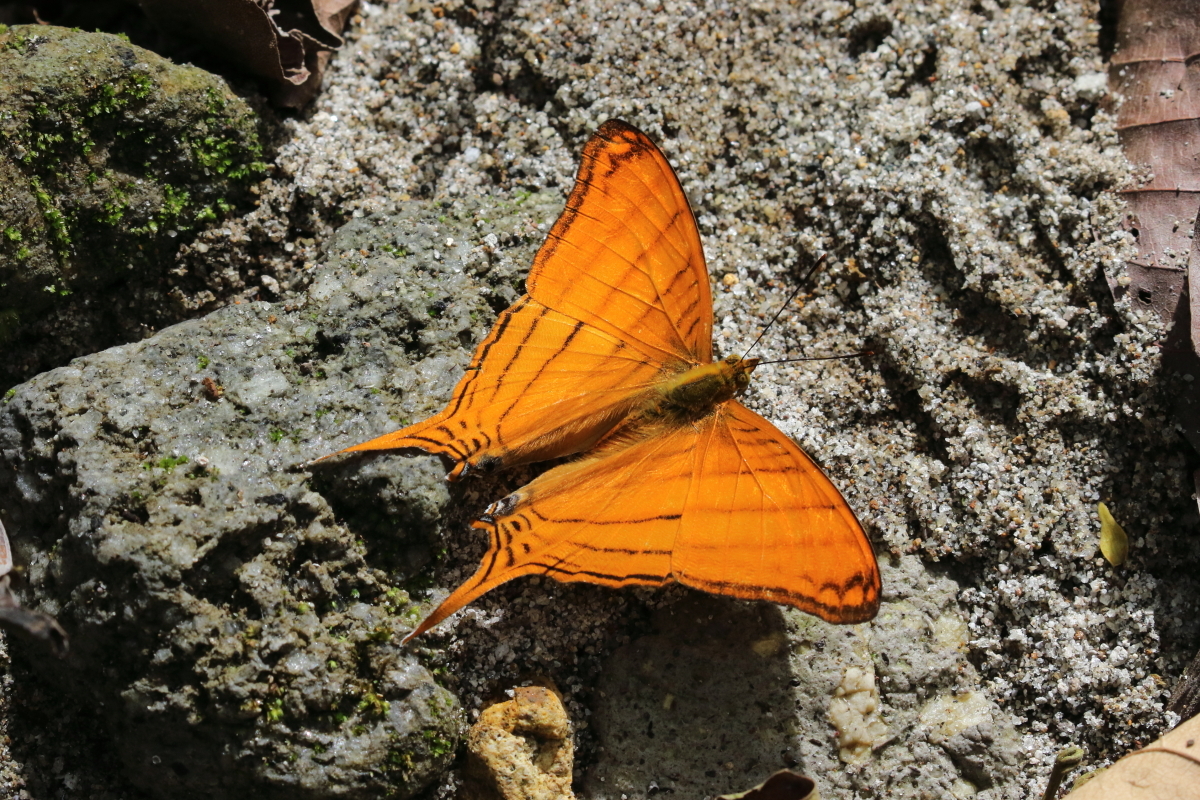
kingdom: Animalia
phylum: Arthropoda
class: Insecta
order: Lepidoptera
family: Nymphalidae
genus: Marpesia
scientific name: Marpesia berania
